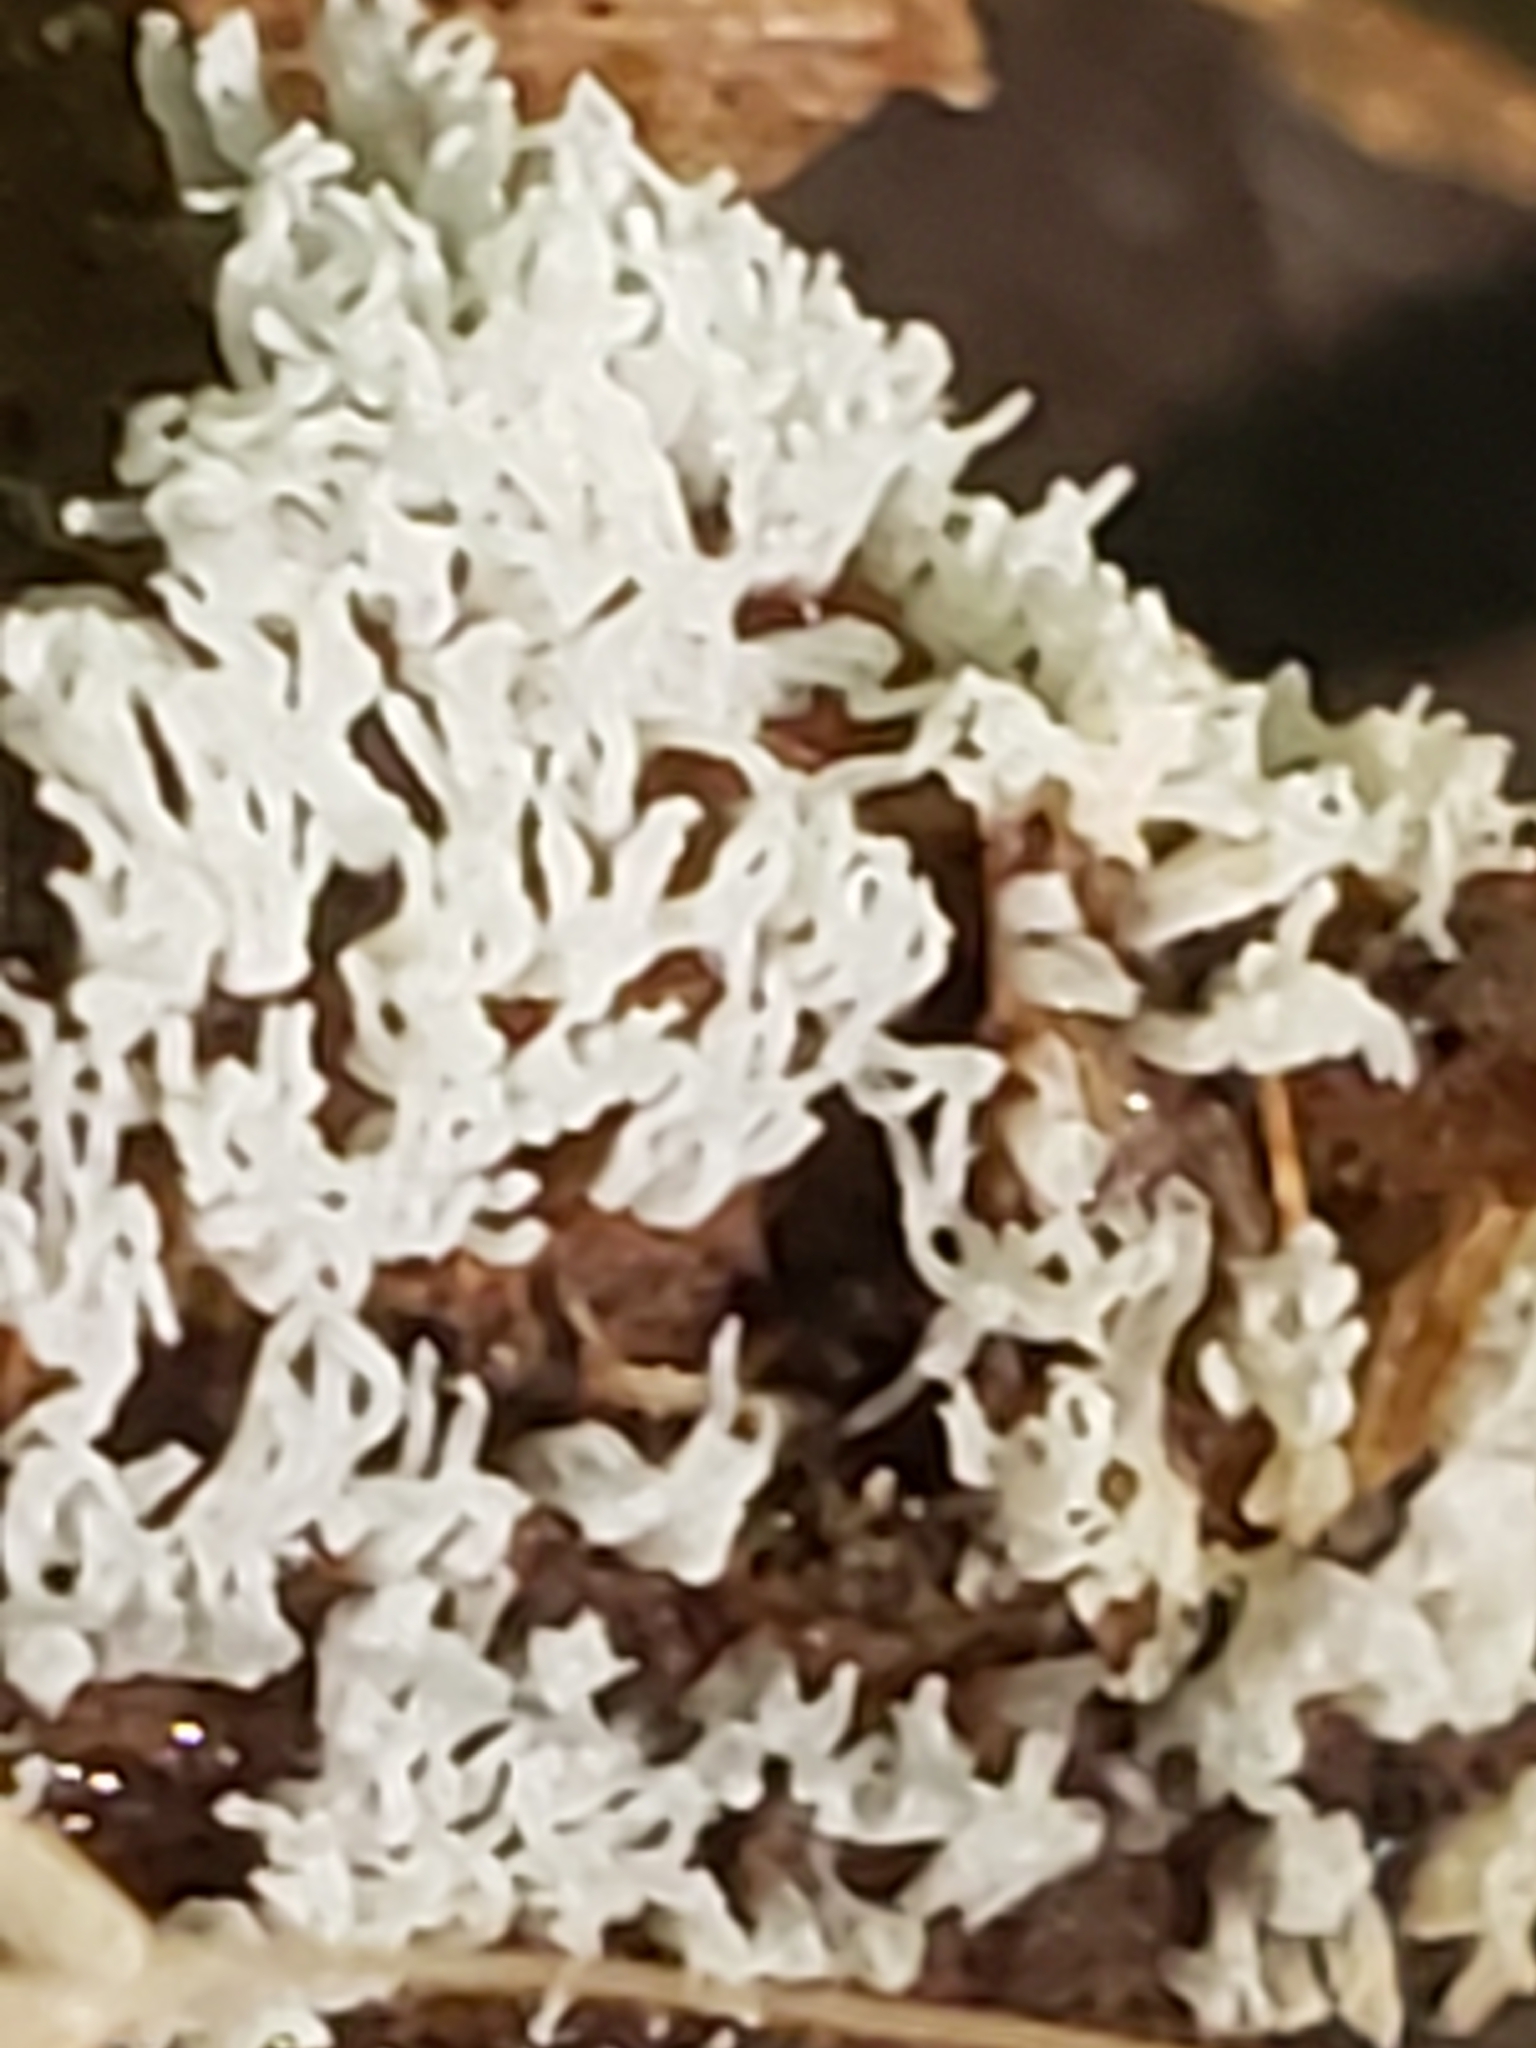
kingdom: Protozoa
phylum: Mycetozoa
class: Protosteliomycetes
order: Ceratiomyxales
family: Ceratiomyxaceae
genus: Ceratiomyxa
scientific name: Ceratiomyxa fruticulosa
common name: Honeycomb coral slime mold
